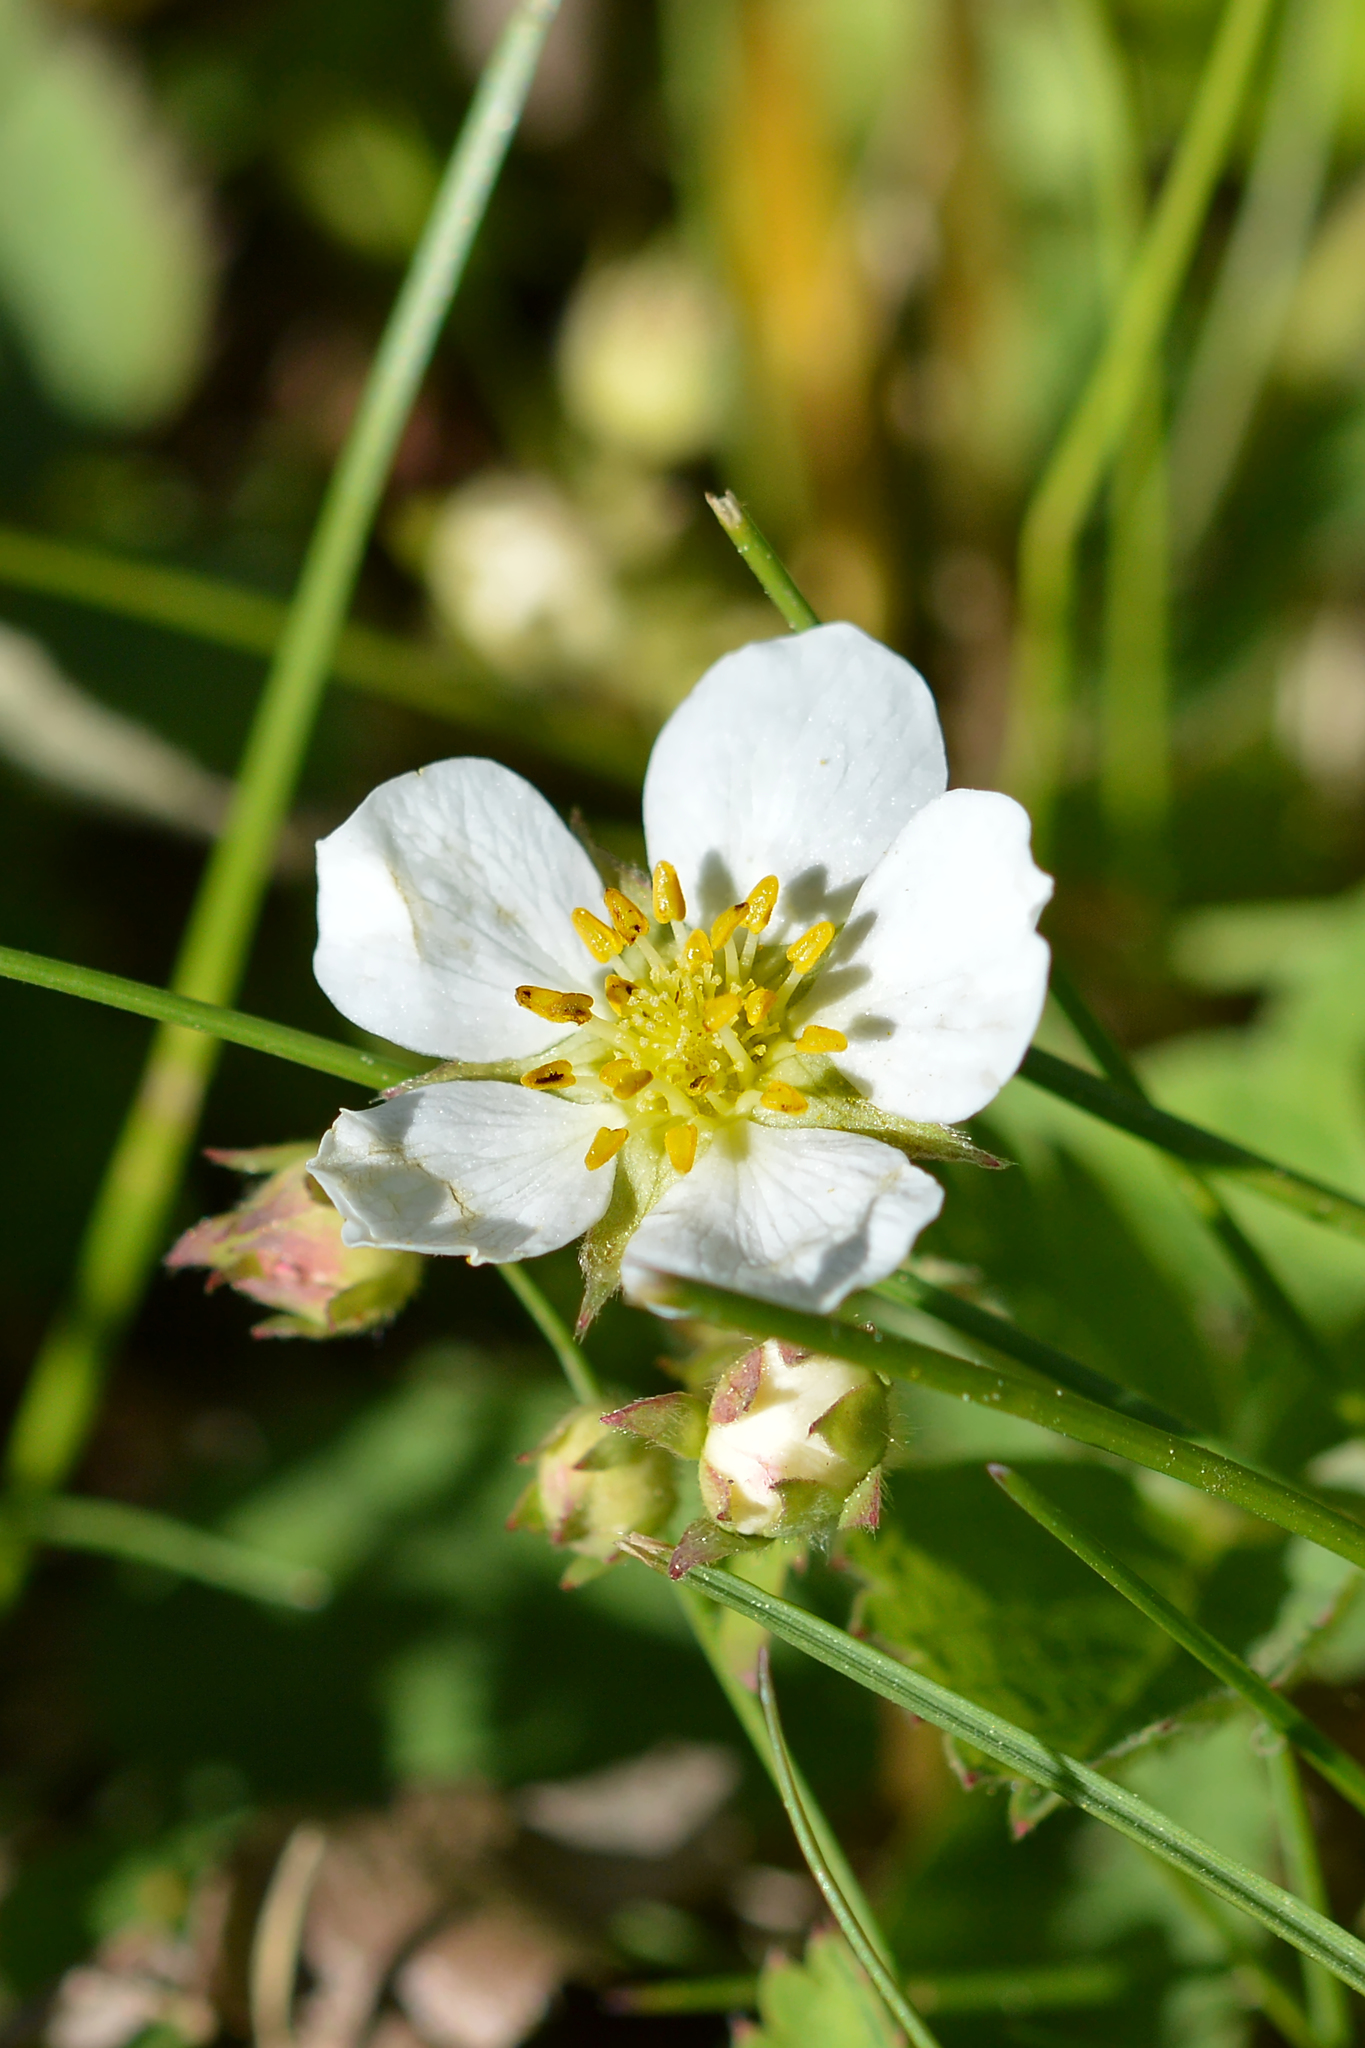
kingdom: Plantae
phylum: Tracheophyta
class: Magnoliopsida
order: Rosales
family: Rosaceae
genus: Fragaria
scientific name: Fragaria virginiana
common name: Thickleaved wild strawberry
